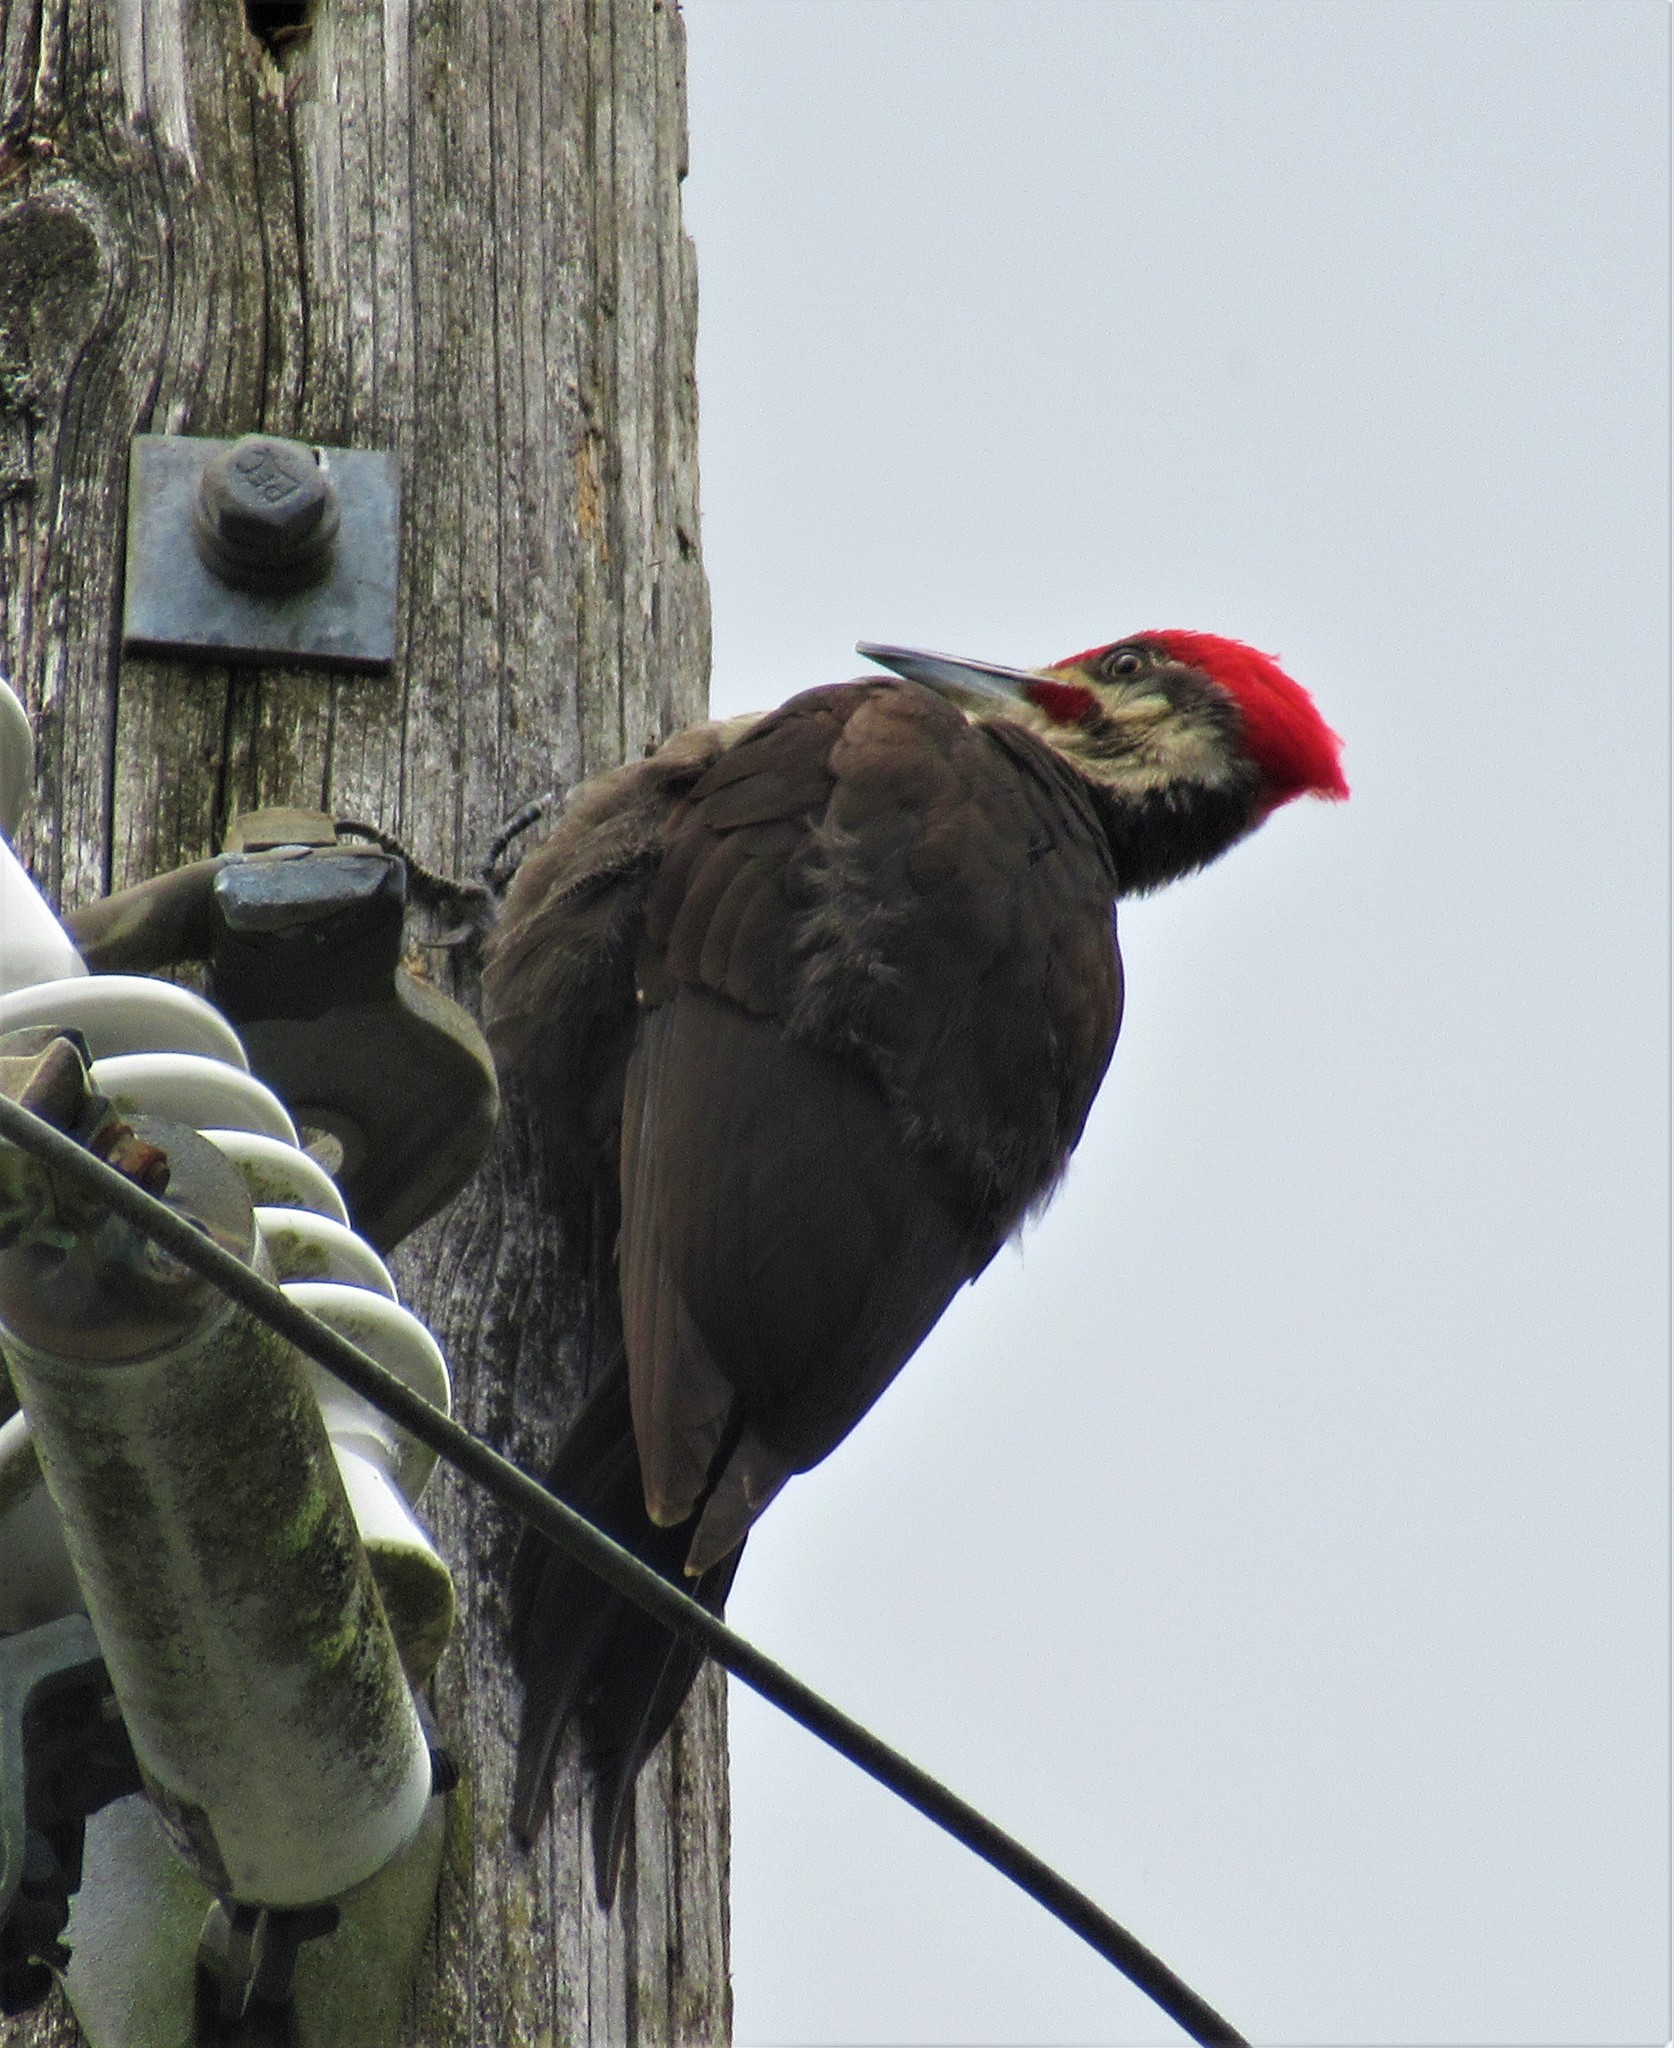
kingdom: Animalia
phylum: Chordata
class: Aves
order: Piciformes
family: Picidae
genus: Dryocopus
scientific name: Dryocopus pileatus
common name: Pileated woodpecker
